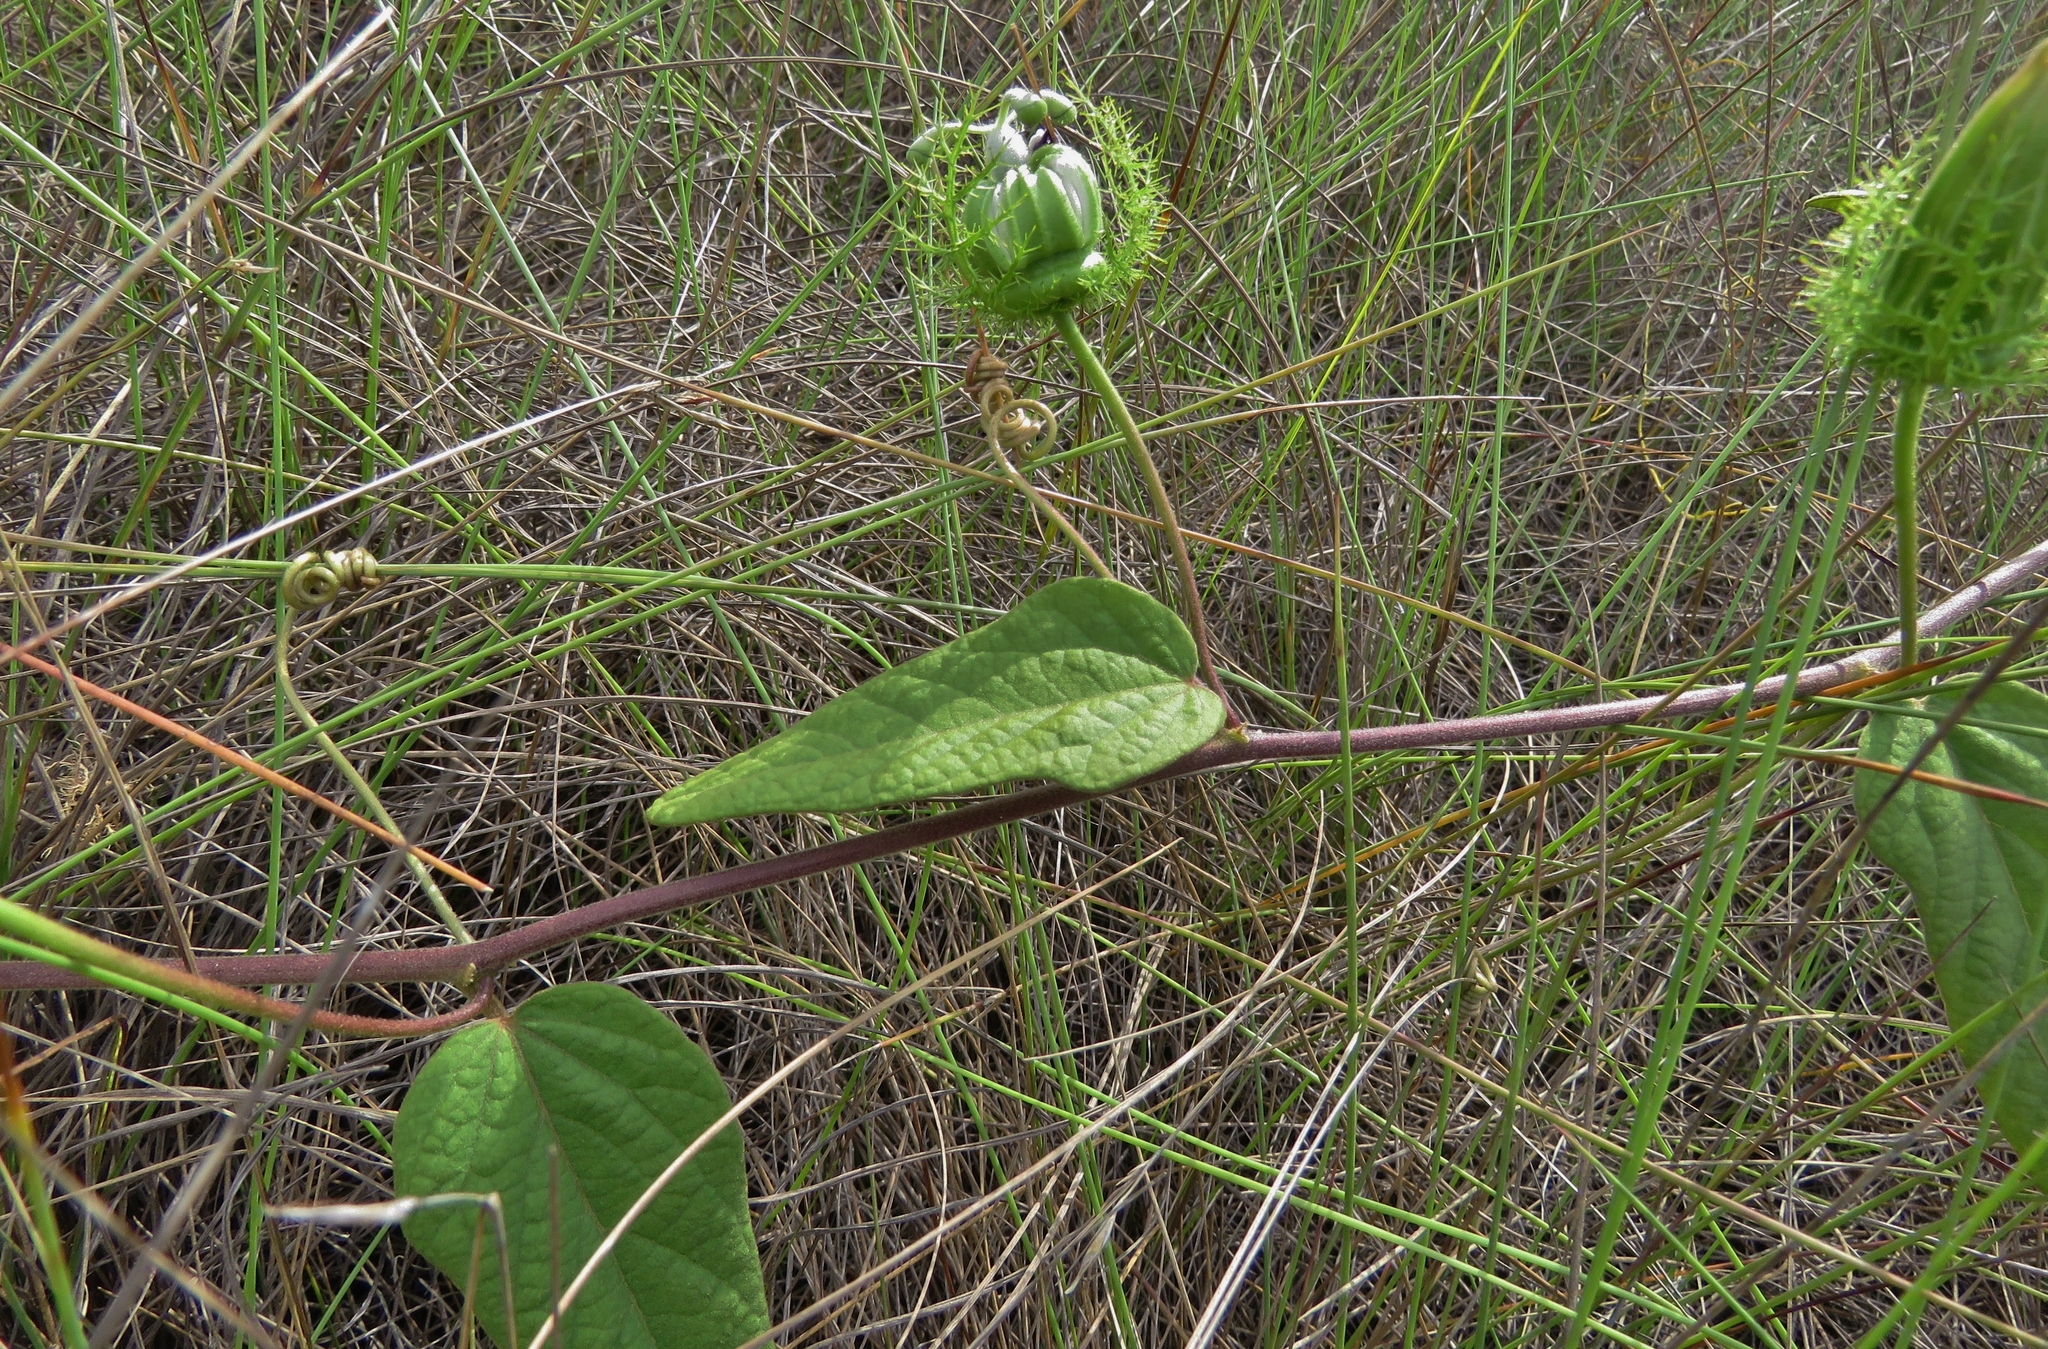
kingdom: Plantae
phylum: Tracheophyta
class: Magnoliopsida
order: Malpighiales
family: Passifloraceae
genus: Passiflora
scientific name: Passiflora urbaniana
